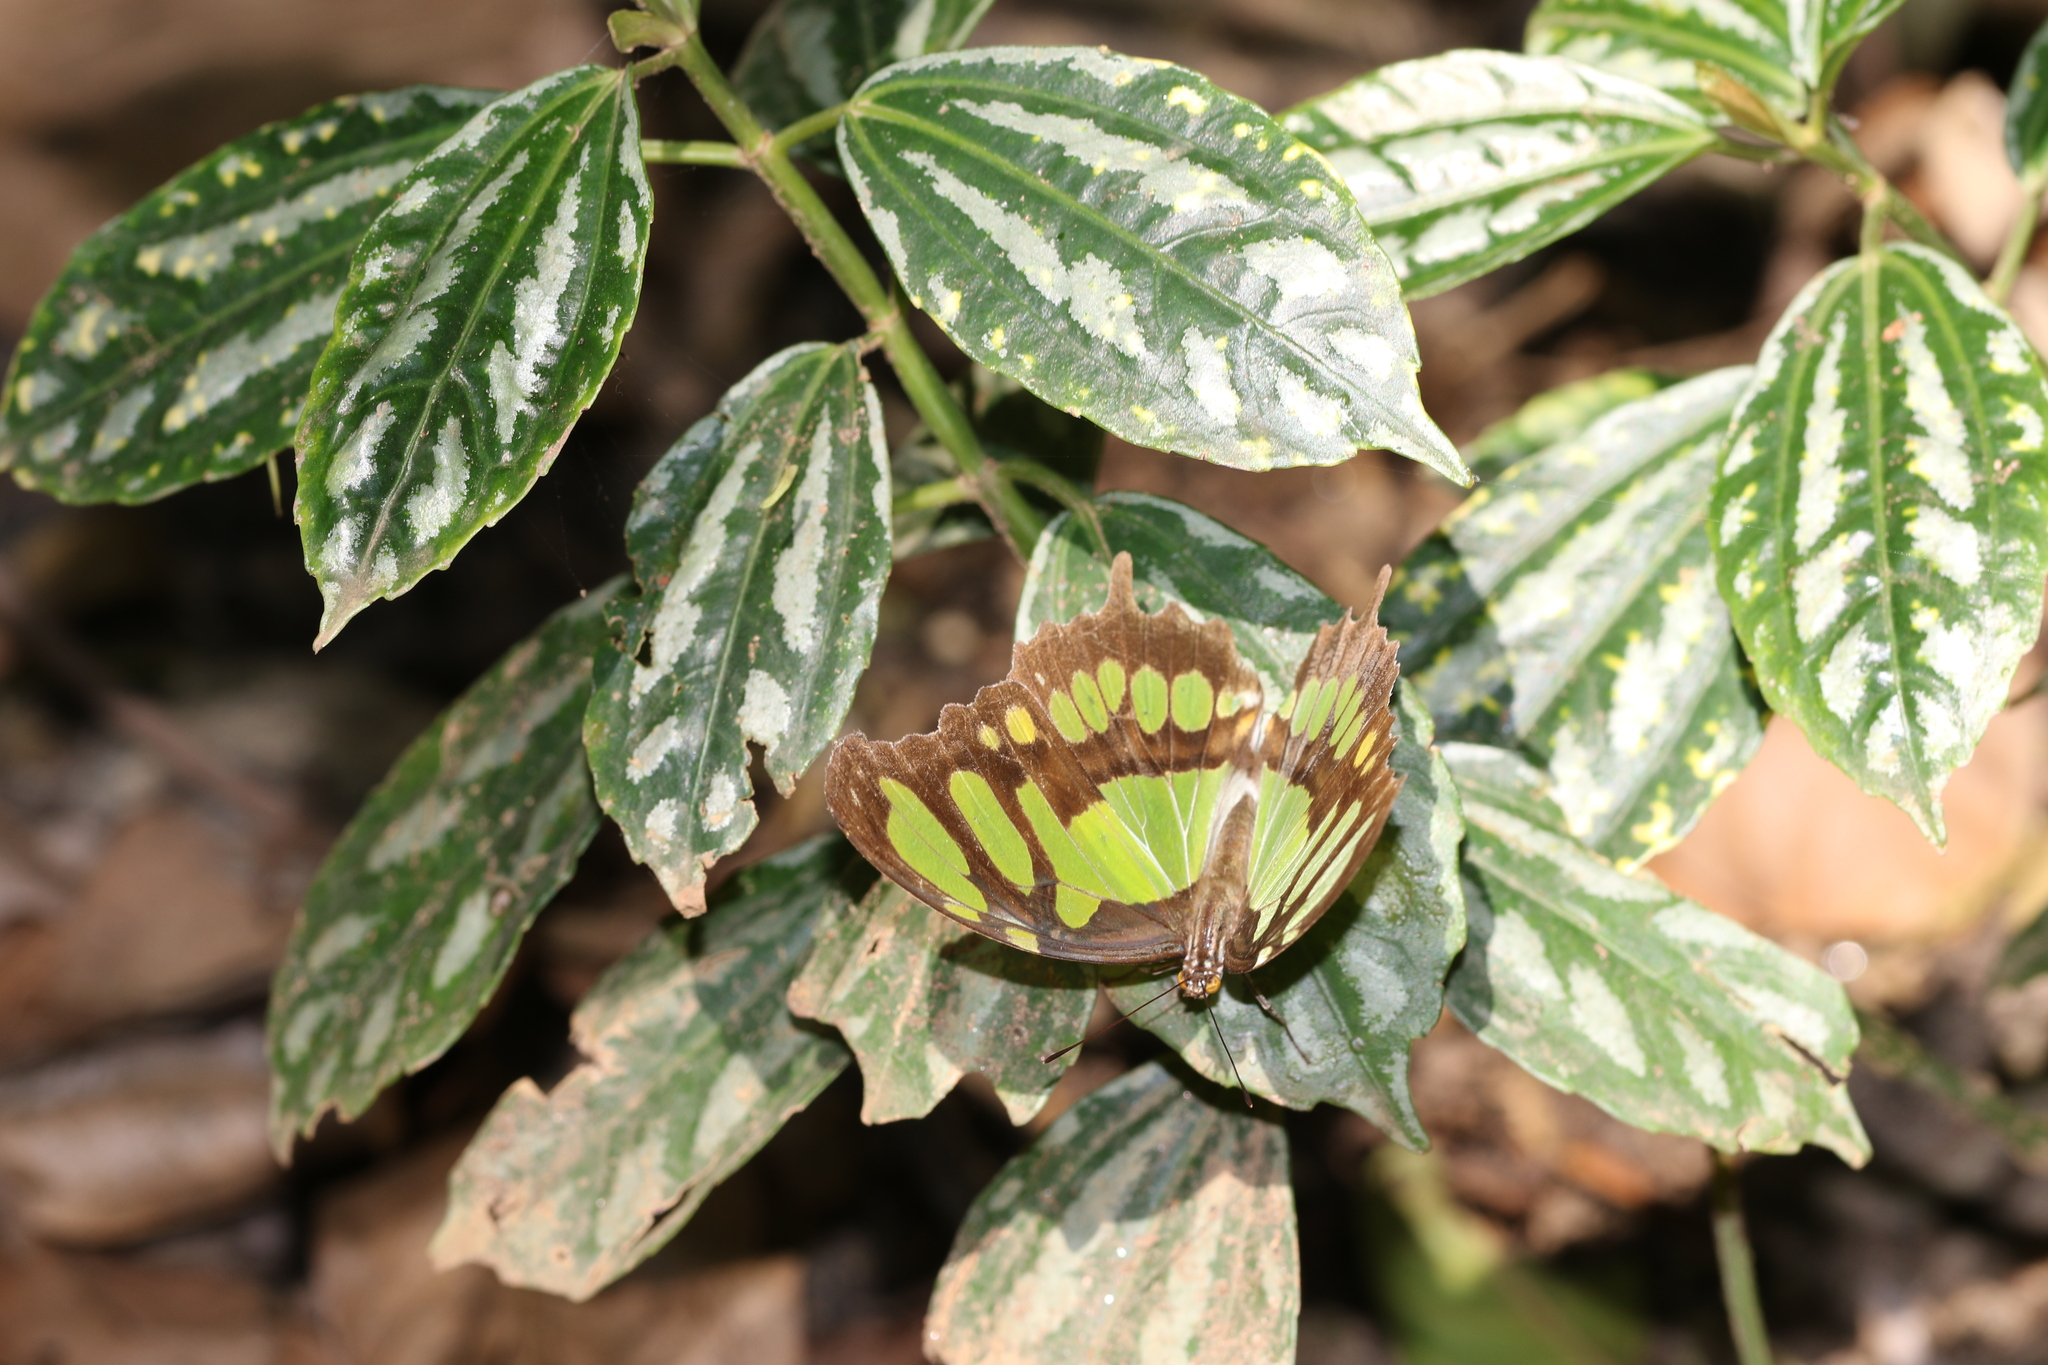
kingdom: Animalia
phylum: Arthropoda
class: Insecta
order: Lepidoptera
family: Nymphalidae
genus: Siproeta
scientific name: Siproeta stelenes
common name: Malachite
